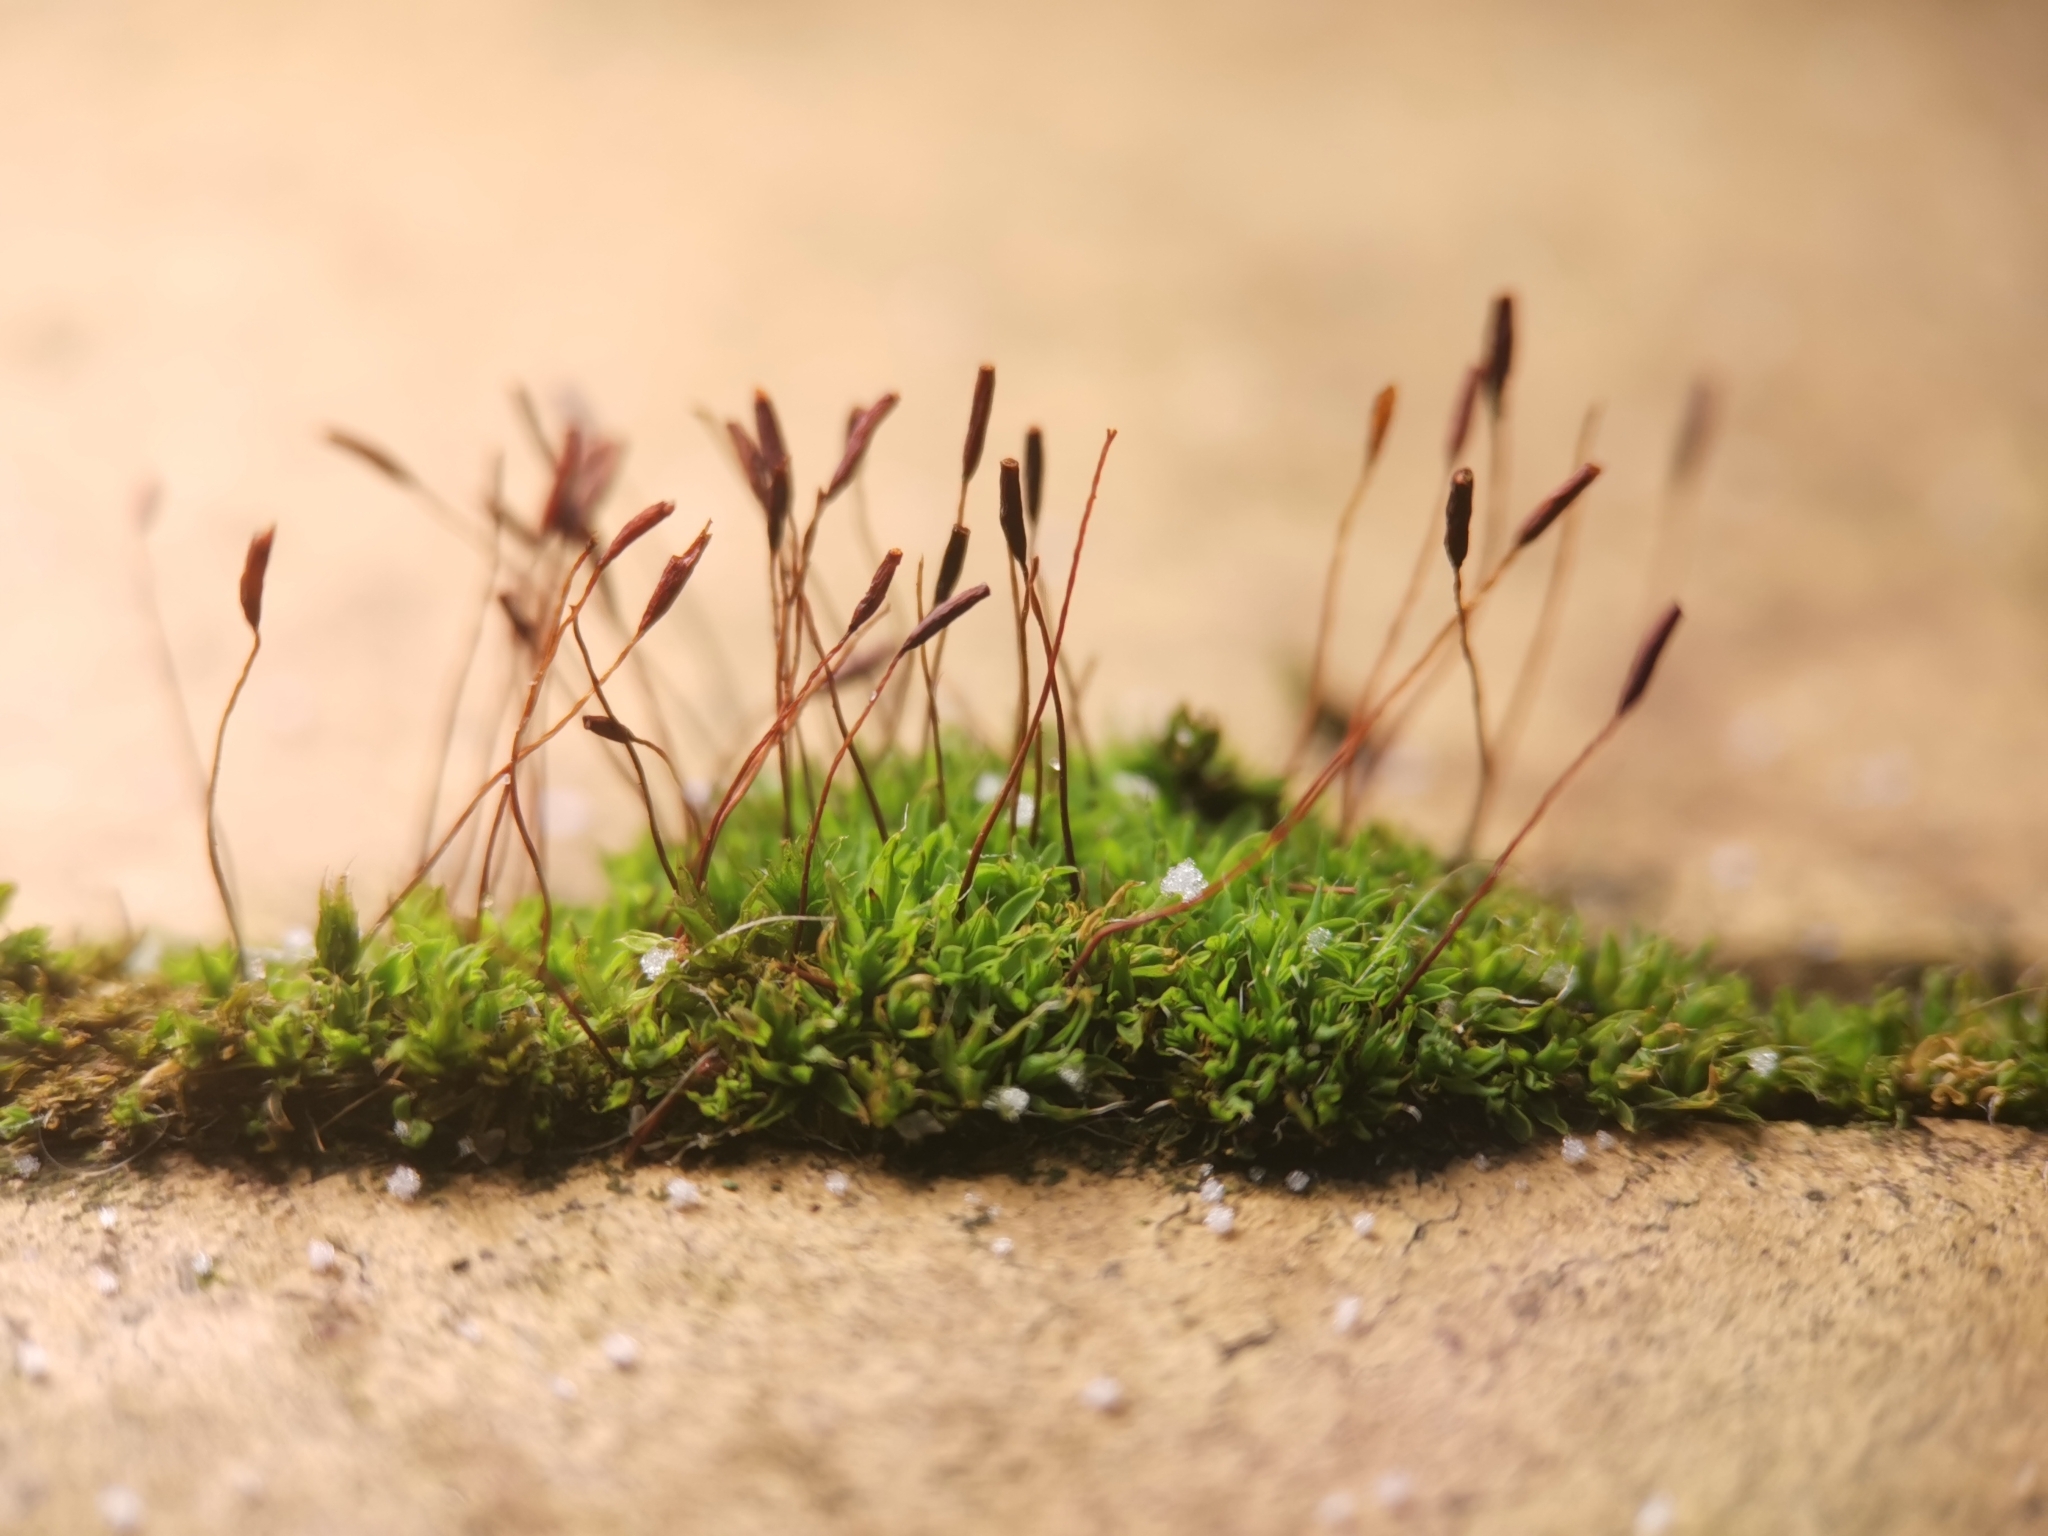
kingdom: Plantae
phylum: Bryophyta
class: Bryopsida
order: Pottiales
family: Pottiaceae
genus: Tortula
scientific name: Tortula muralis
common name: Wall screw-moss
